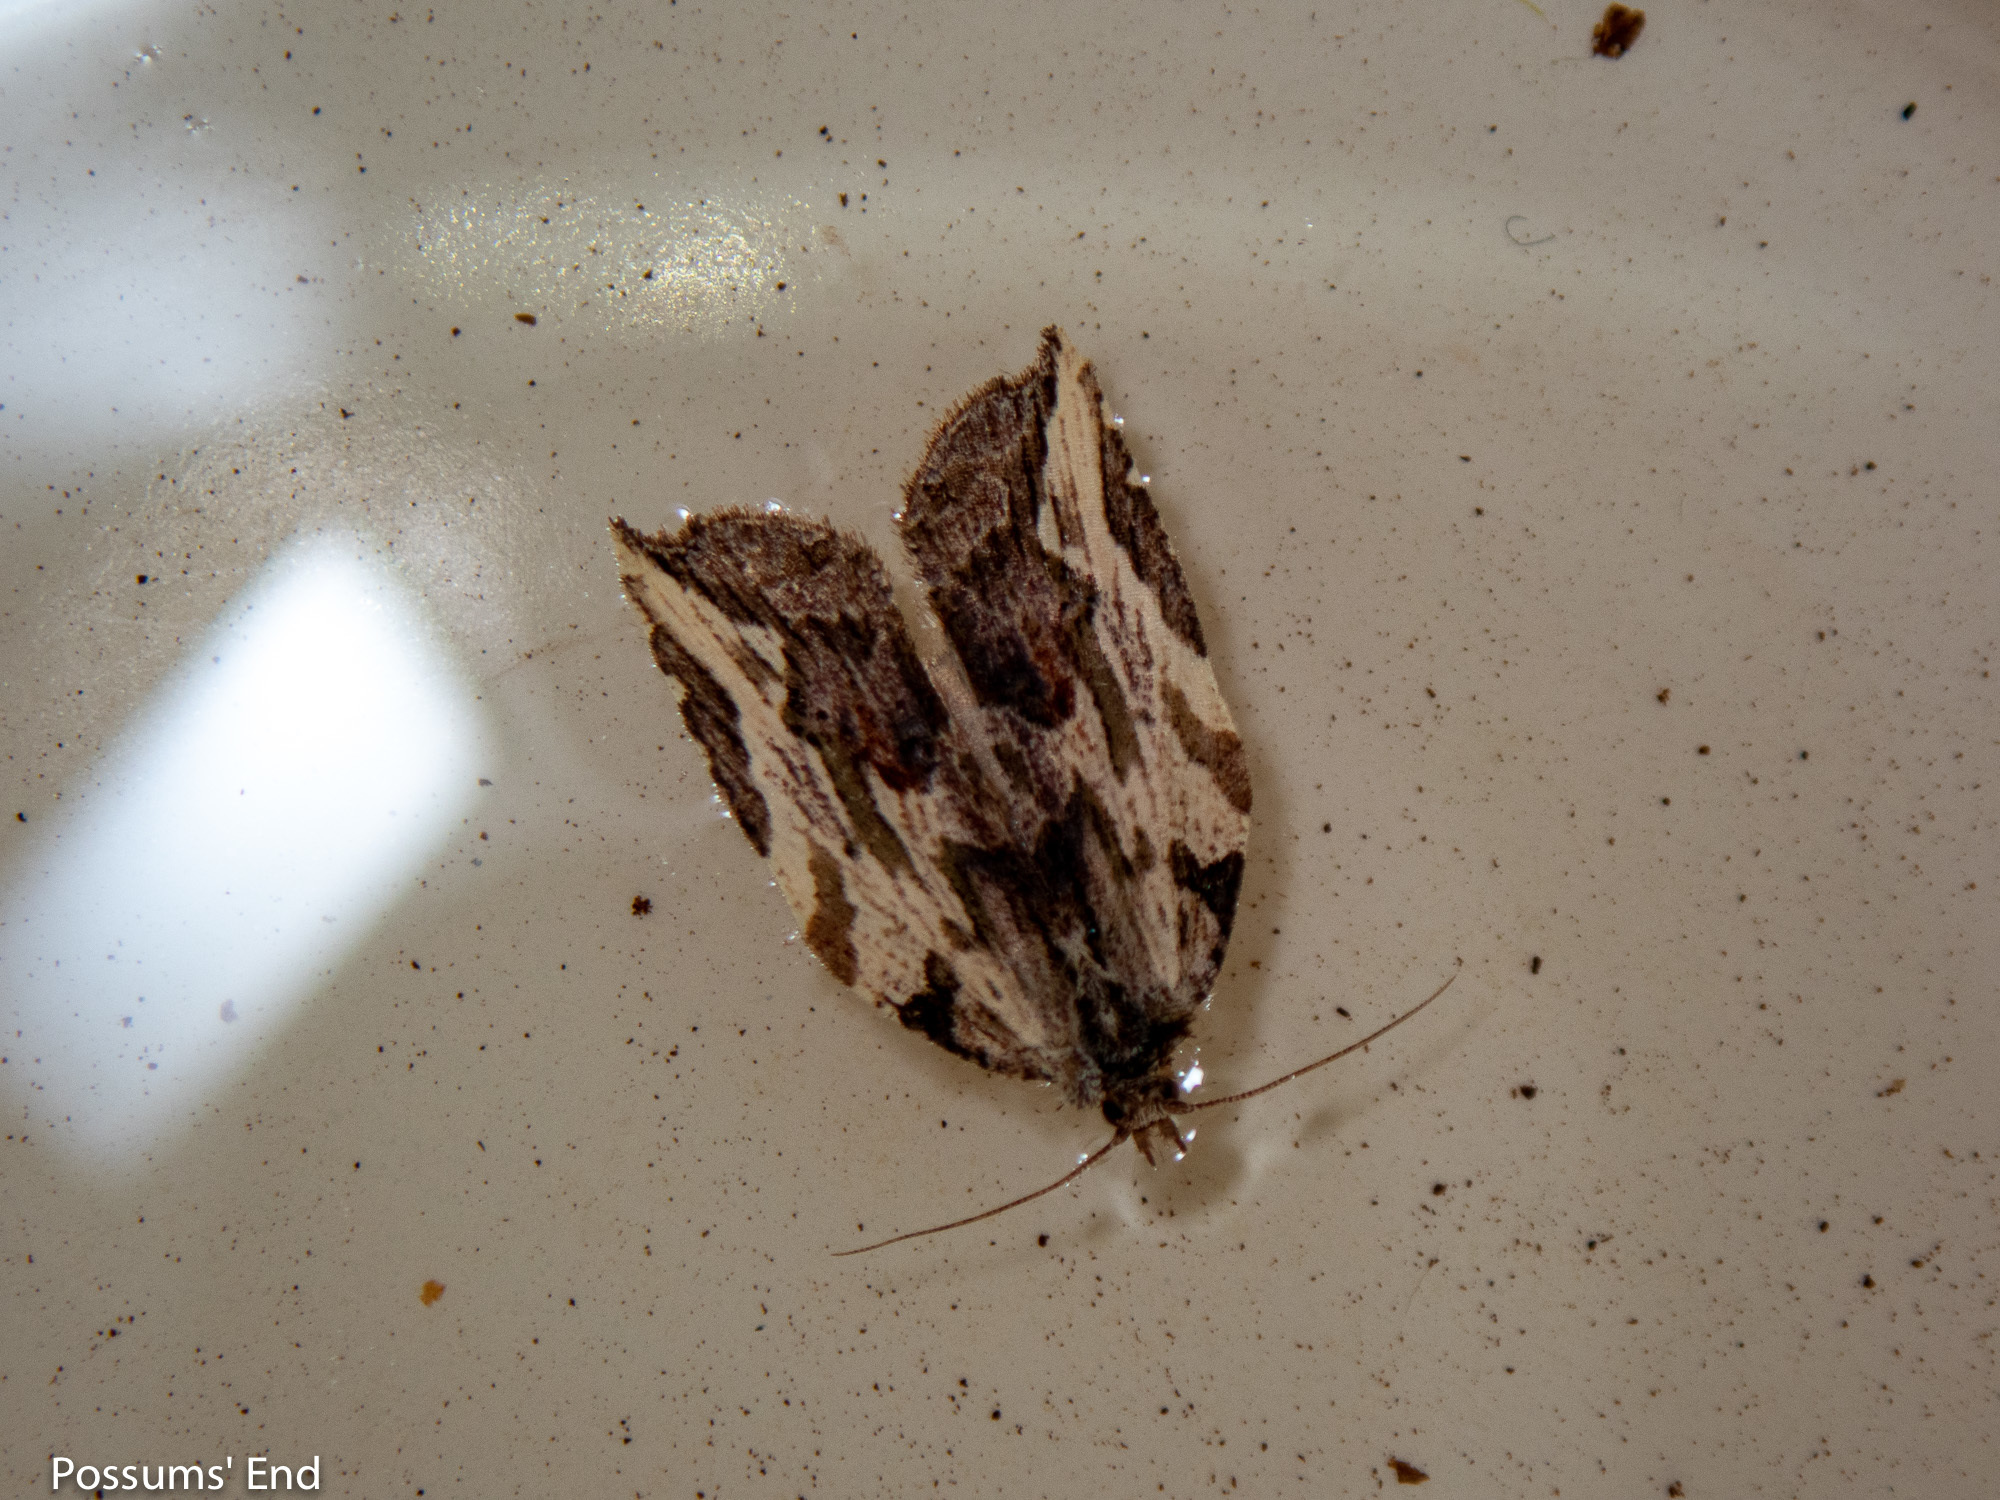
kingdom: Animalia
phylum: Arthropoda
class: Insecta
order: Lepidoptera
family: Tortricidae
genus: Epalxiphora
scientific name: Epalxiphora axenana
